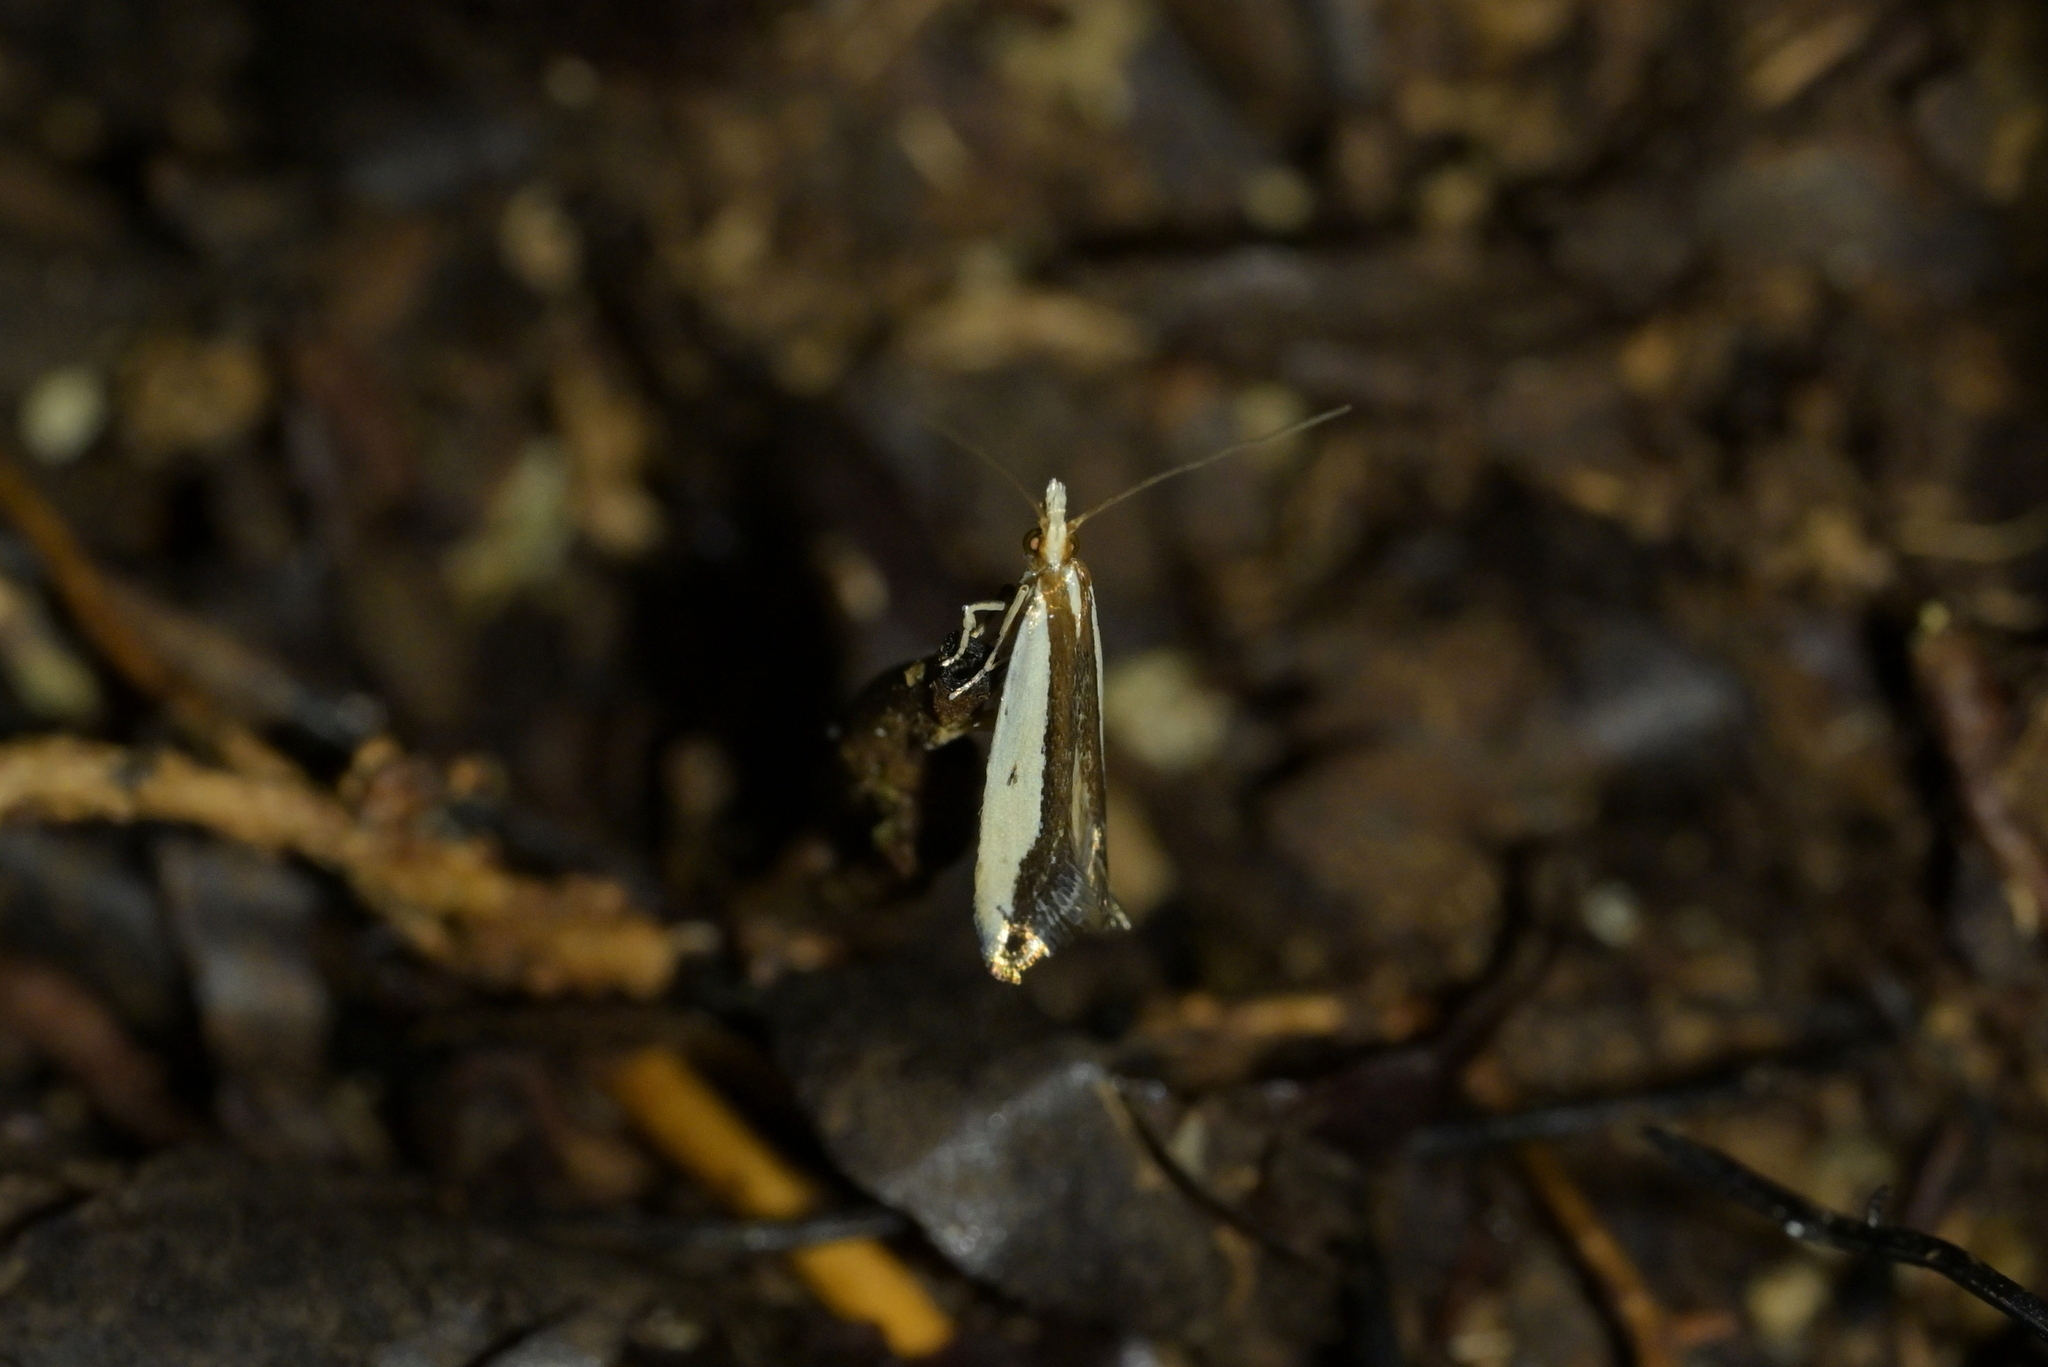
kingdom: Animalia
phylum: Arthropoda
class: Insecta
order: Lepidoptera
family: Tineidae
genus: Erechthias
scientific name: Erechthias chionodira
